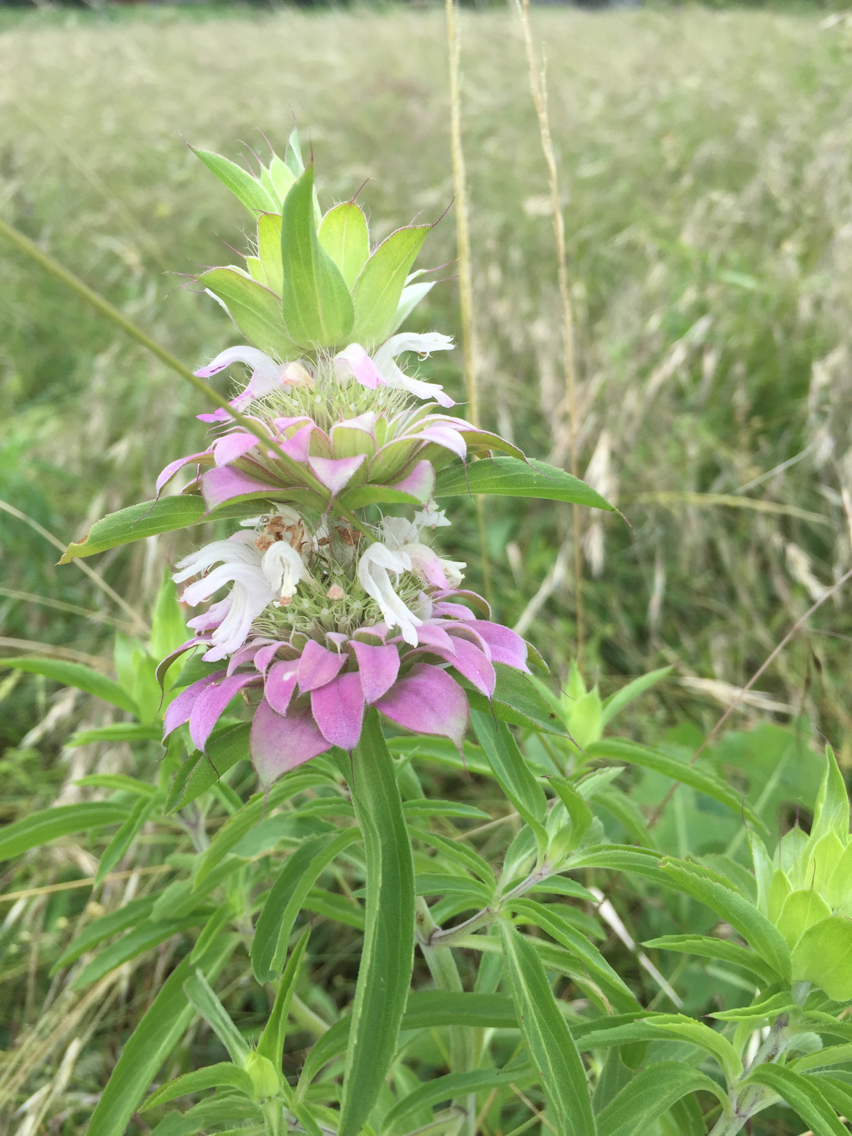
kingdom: Plantae
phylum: Tracheophyta
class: Magnoliopsida
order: Lamiales
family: Lamiaceae
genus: Monarda
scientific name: Monarda citriodora
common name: Lemon beebalm
